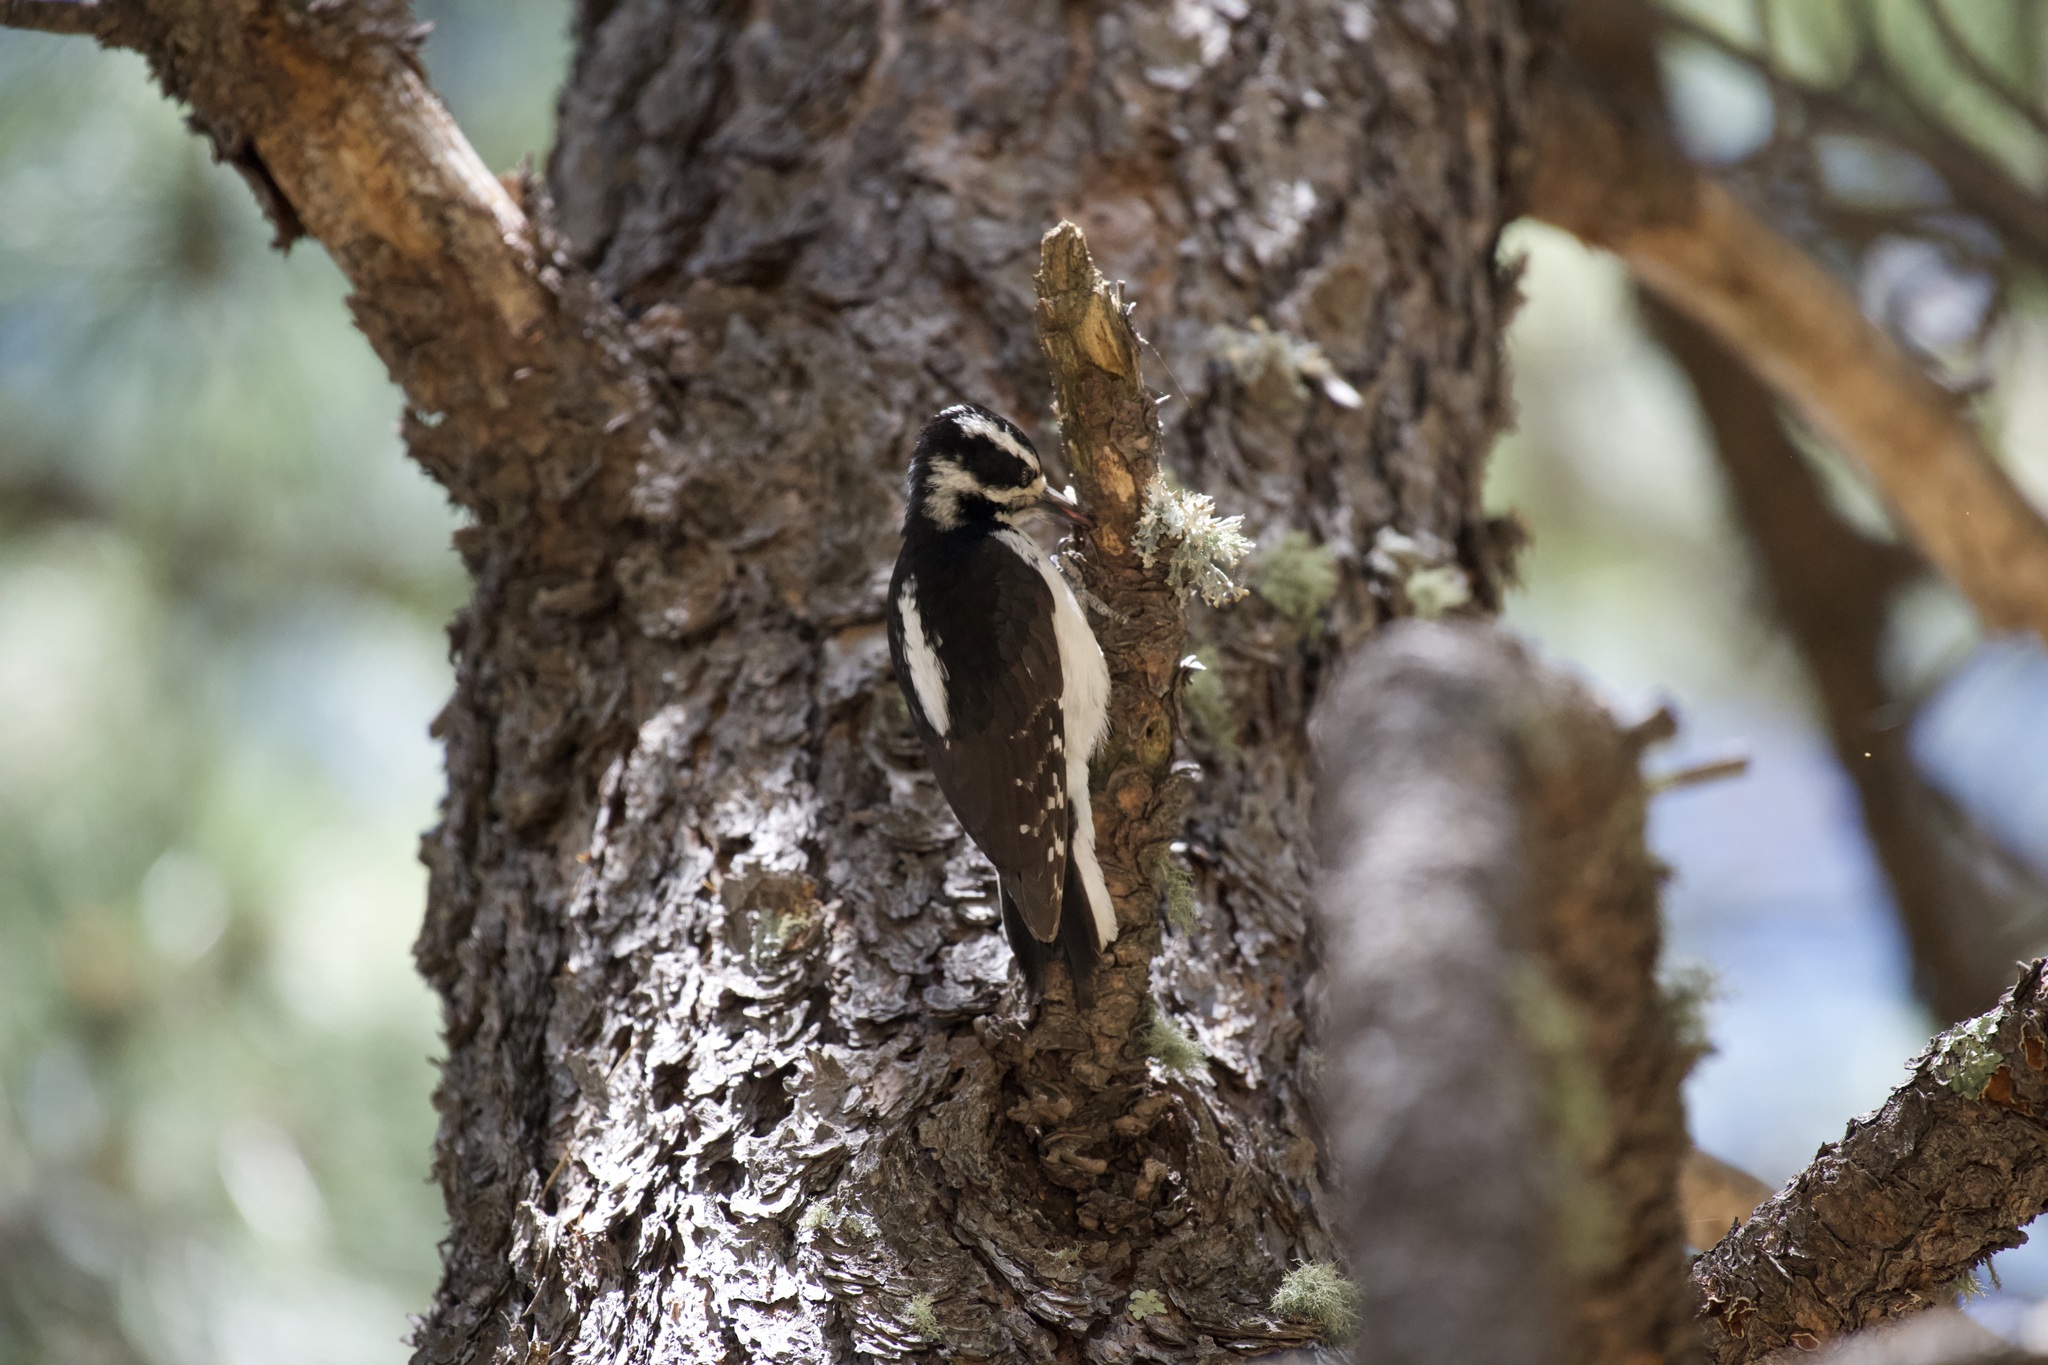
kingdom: Animalia
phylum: Chordata
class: Aves
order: Piciformes
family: Picidae
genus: Leuconotopicus
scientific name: Leuconotopicus villosus
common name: Hairy woodpecker
